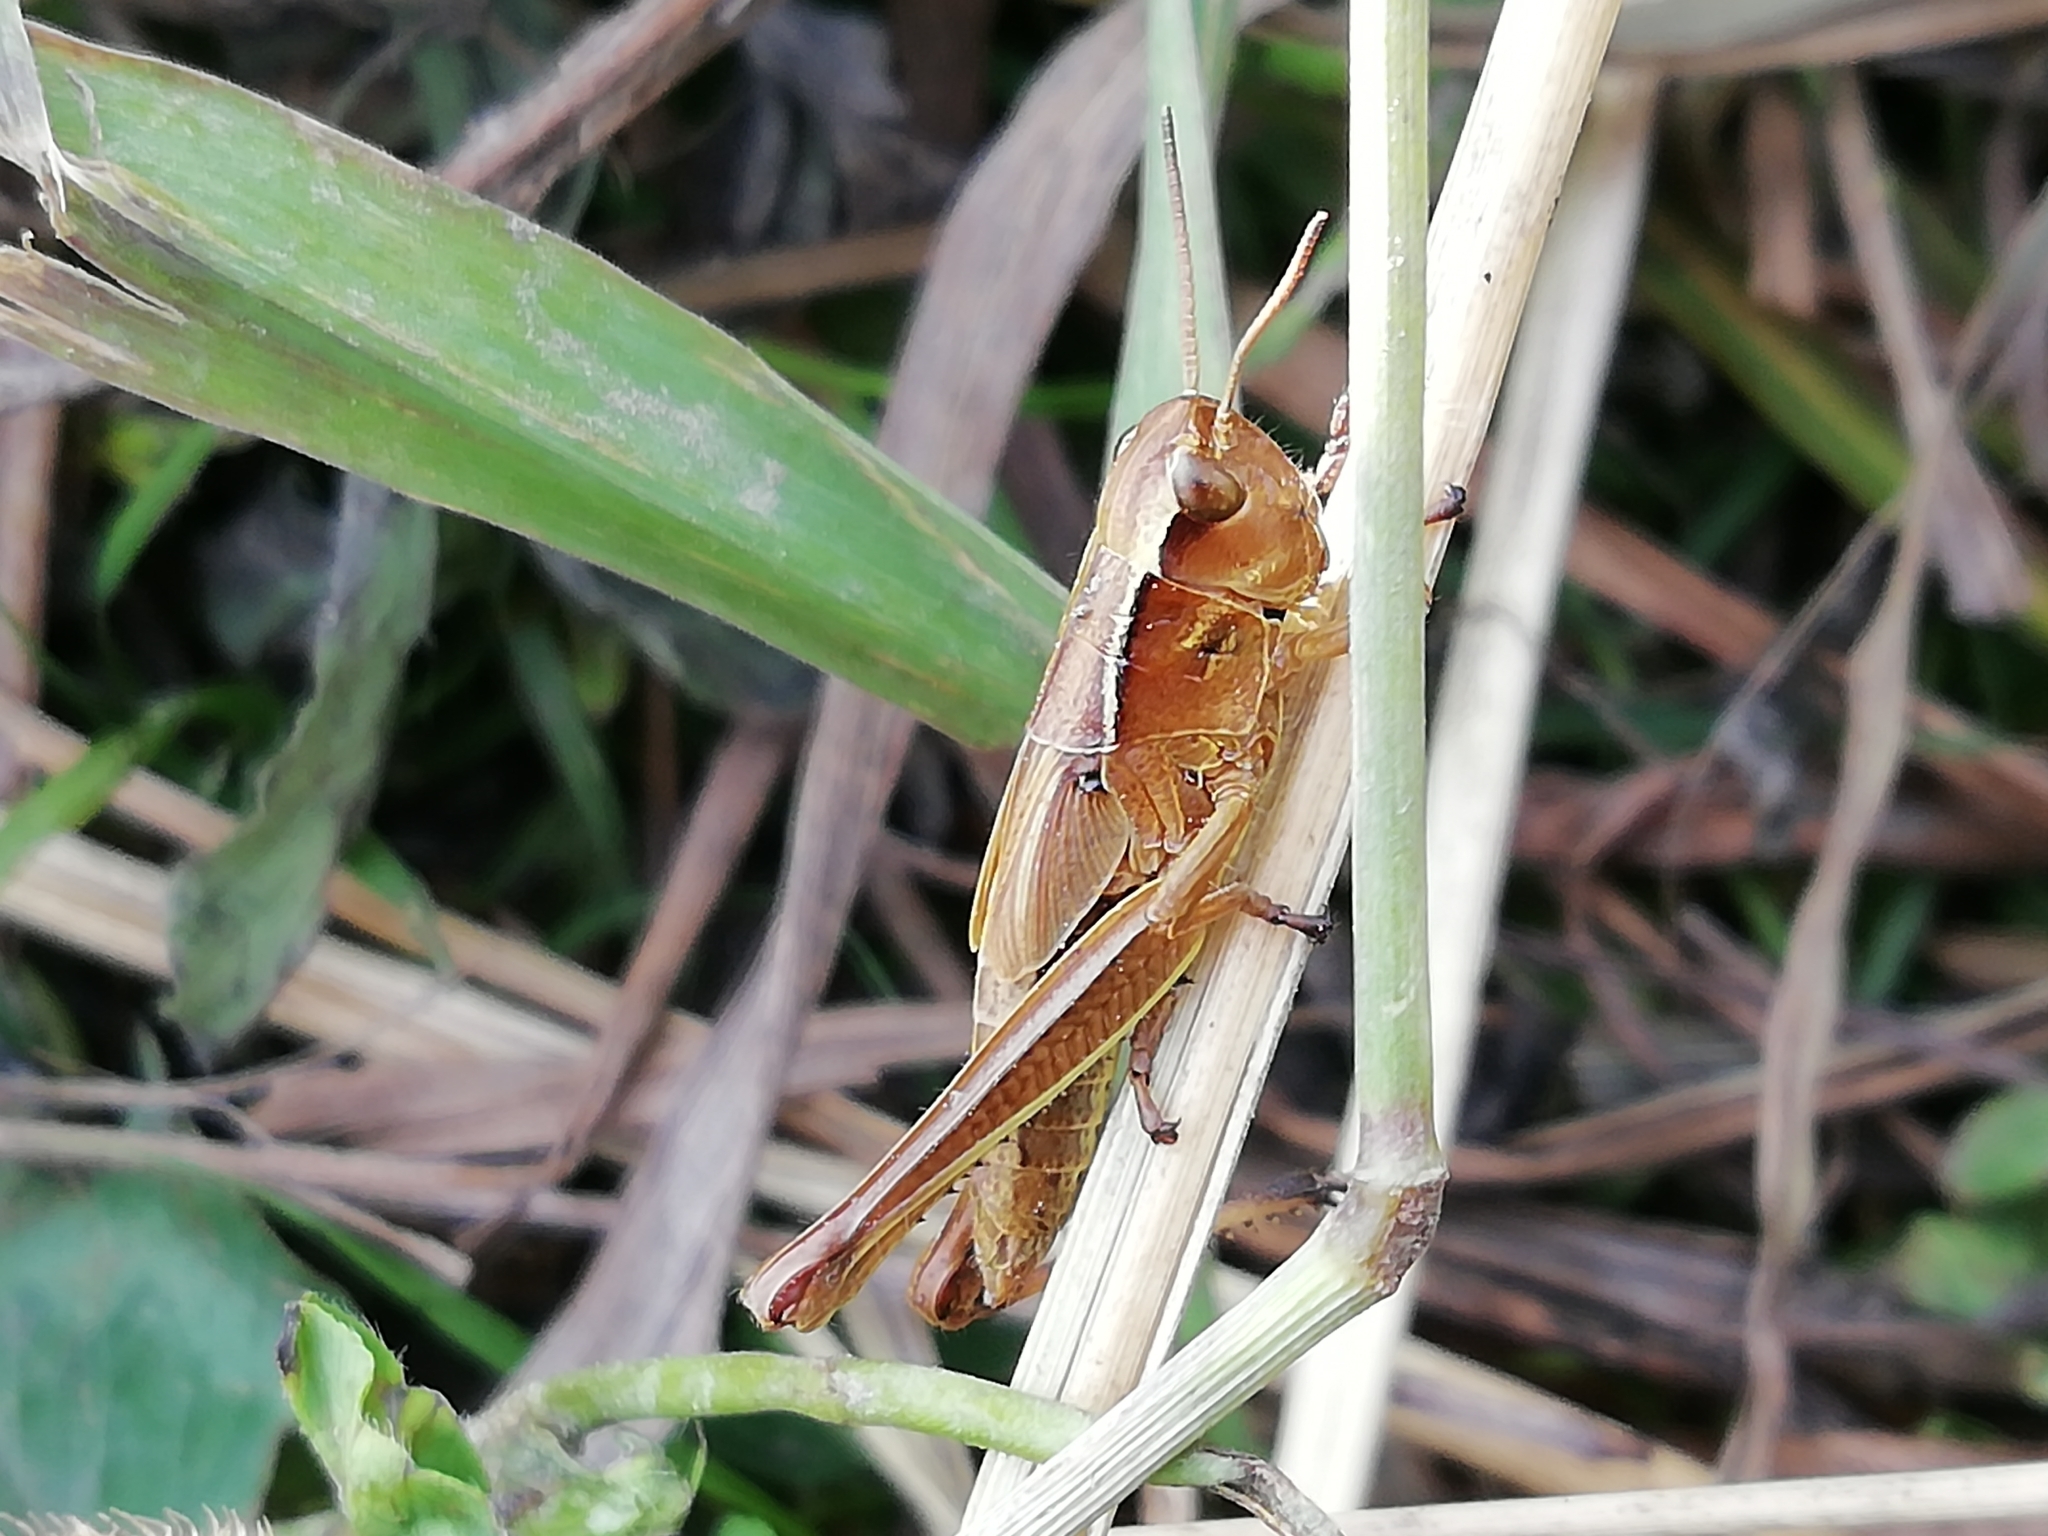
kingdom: Animalia
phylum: Arthropoda
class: Insecta
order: Orthoptera
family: Acrididae
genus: Stethophyma
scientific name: Stethophyma grossum
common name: Large marsh grasshopper
